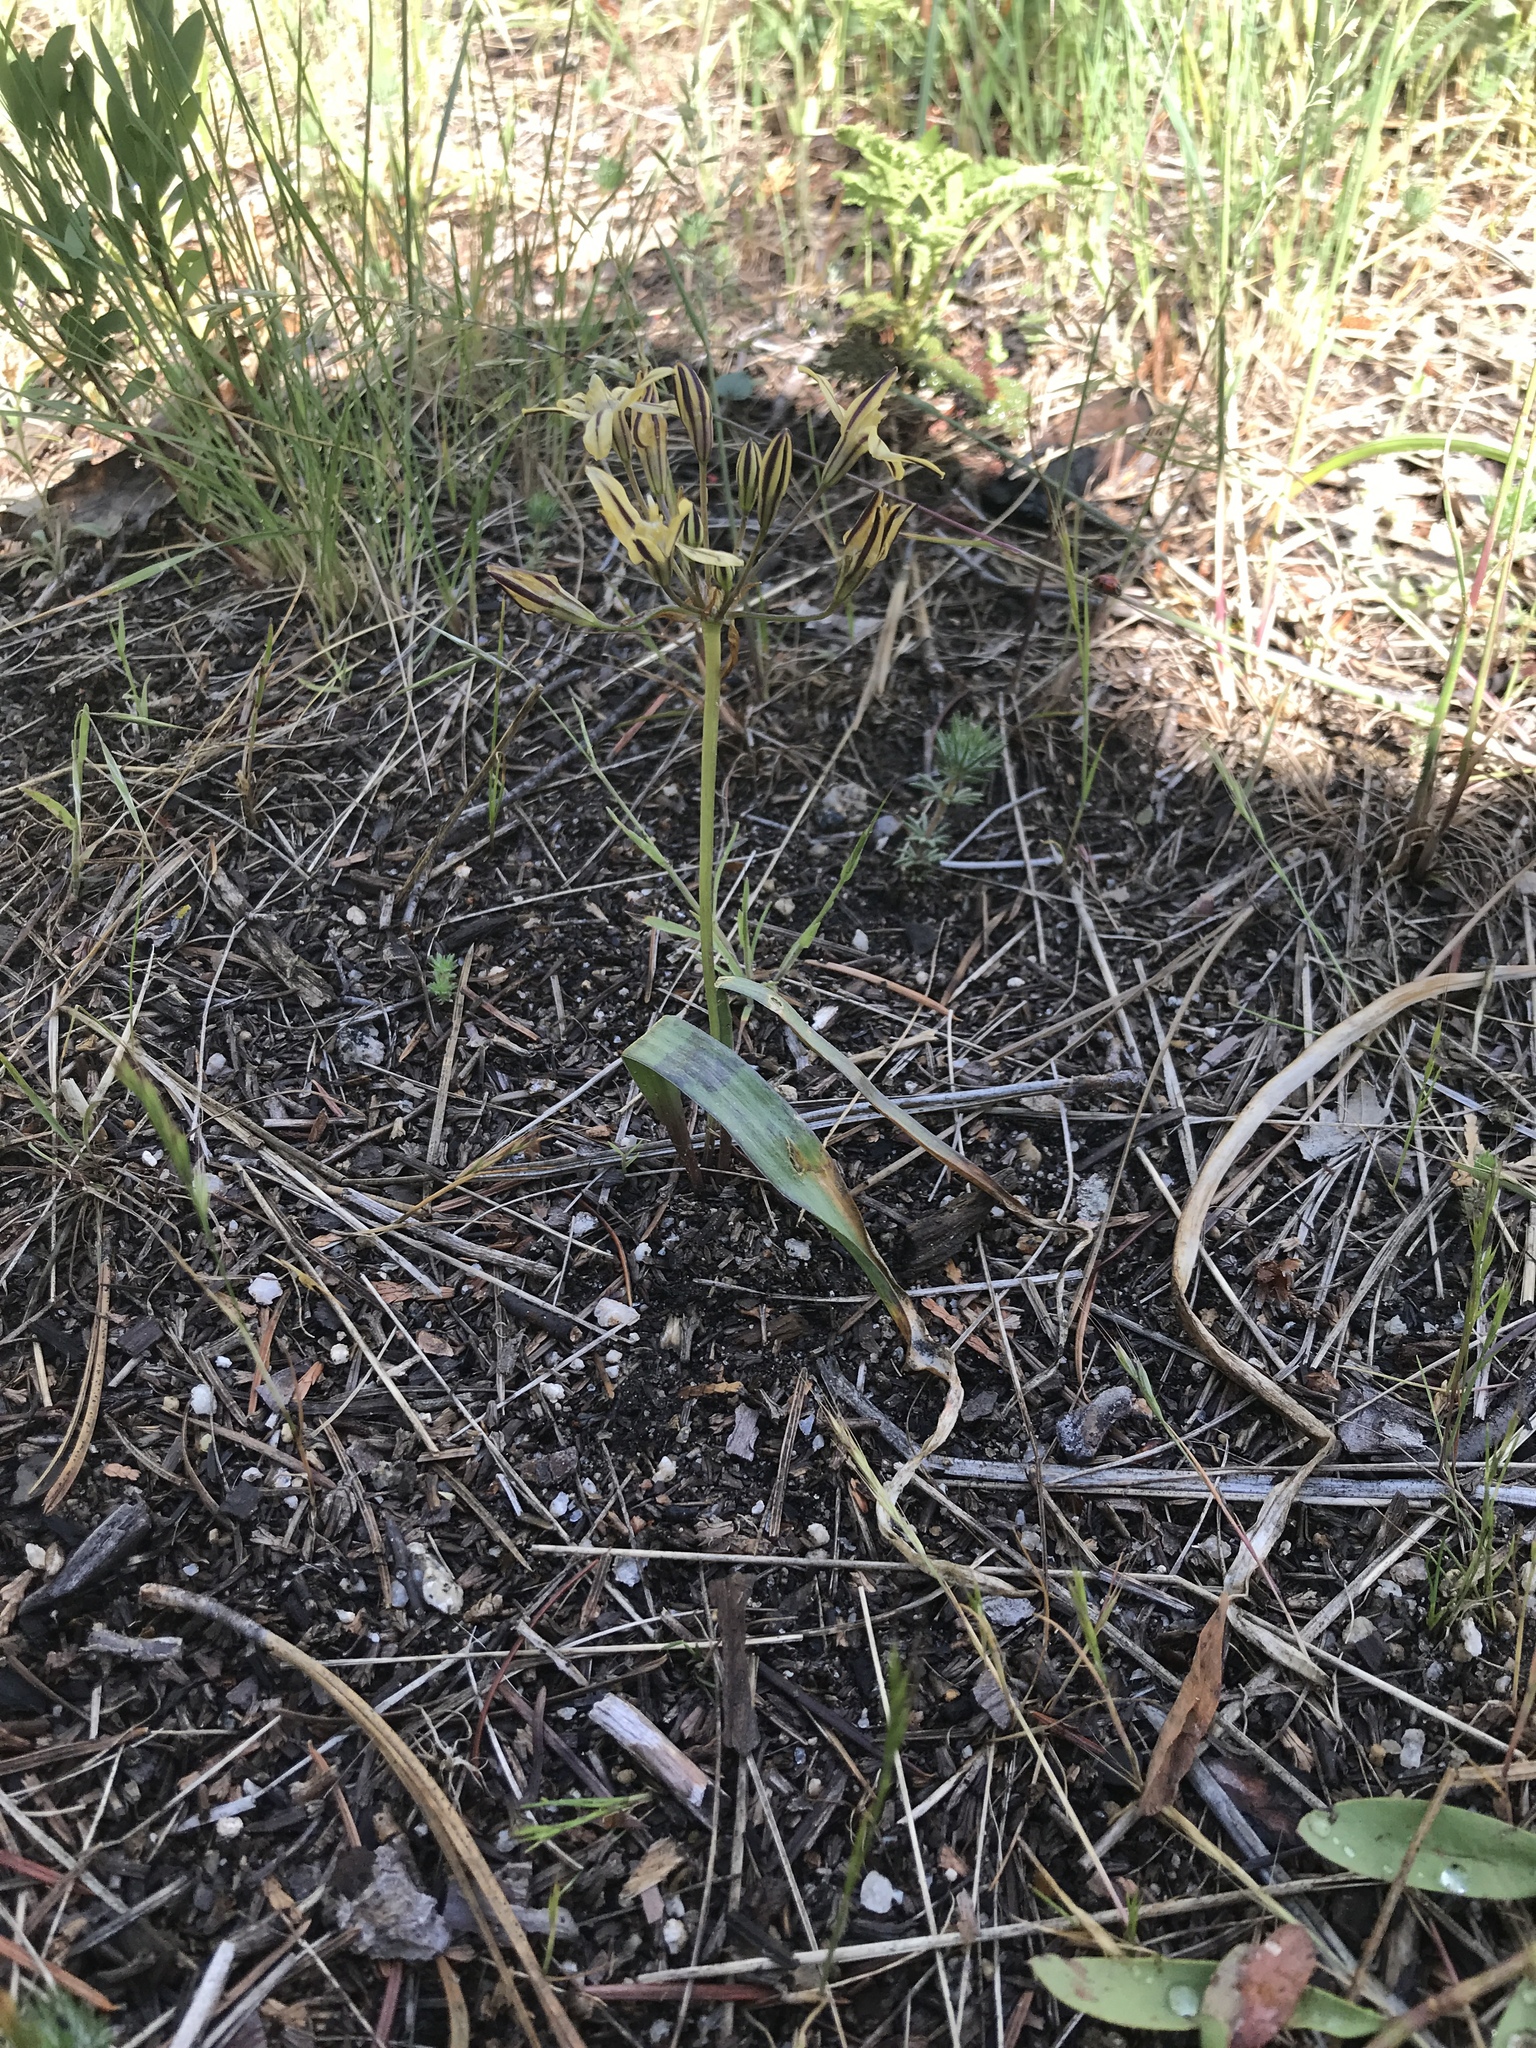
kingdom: Plantae
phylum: Tracheophyta
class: Liliopsida
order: Asparagales
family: Asparagaceae
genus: Triteleia
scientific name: Triteleia ixioides
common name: Yellow-brodiaea
